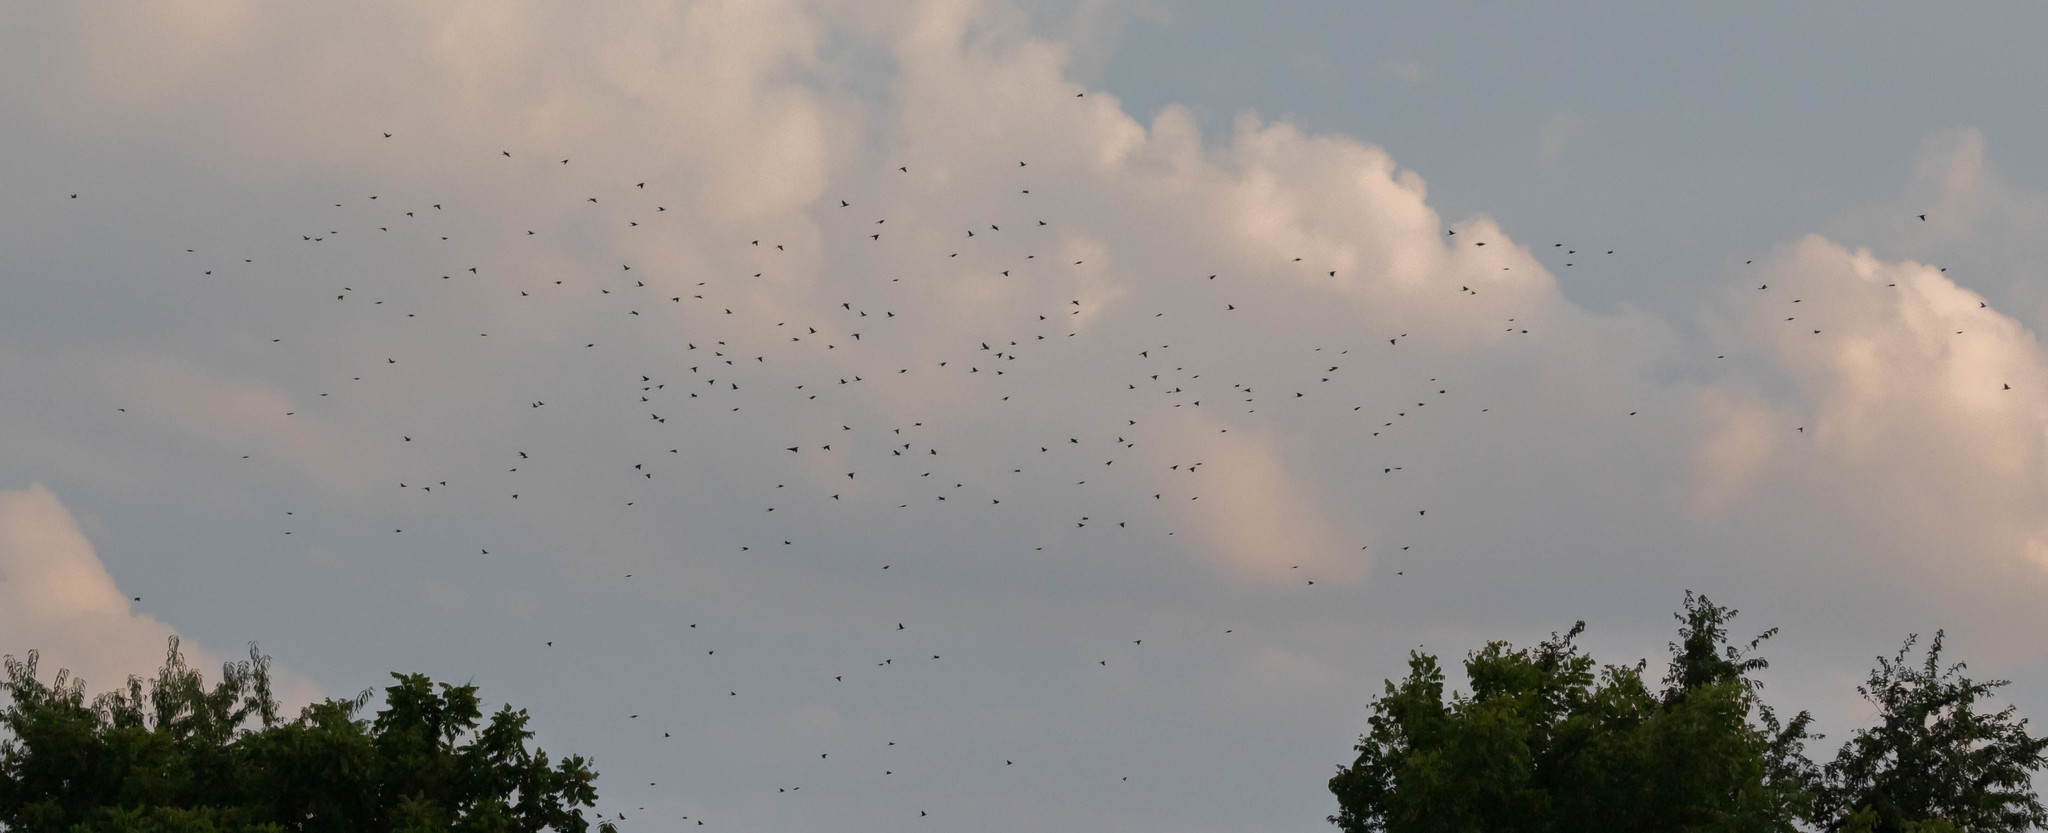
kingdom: Animalia
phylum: Chordata
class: Aves
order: Passeriformes
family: Icteridae
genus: Quiscalus
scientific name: Quiscalus quiscula
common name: Common grackle
